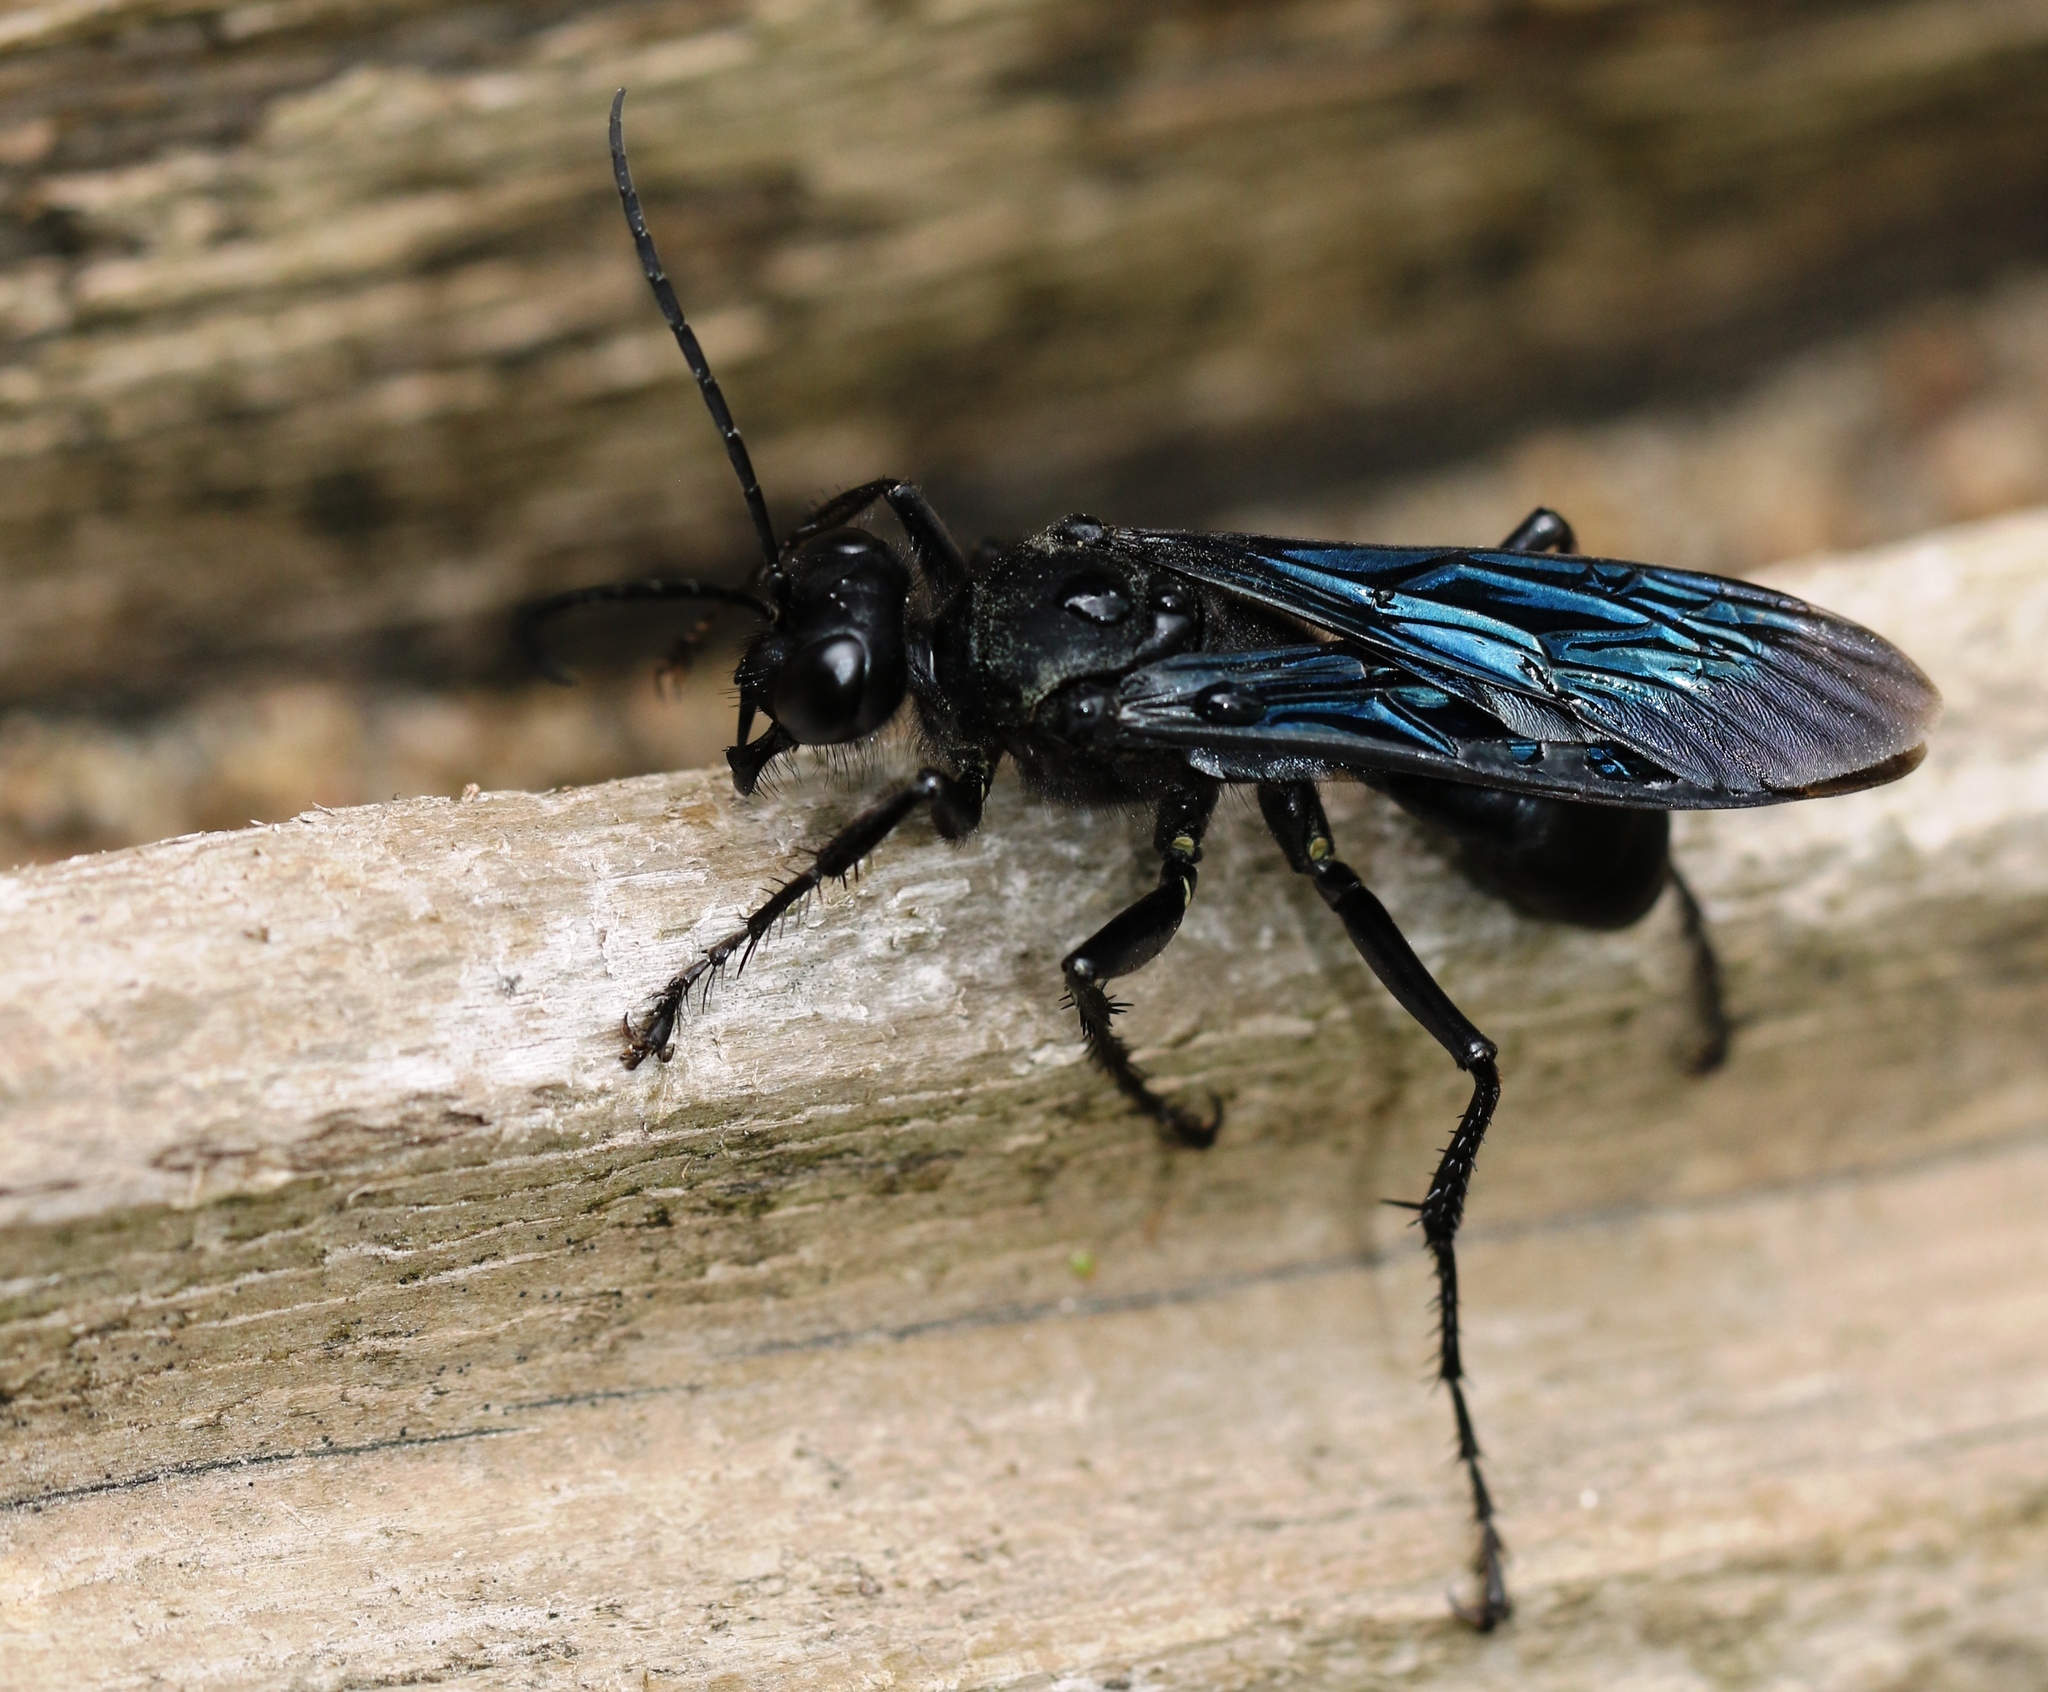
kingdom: Animalia
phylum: Arthropoda
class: Insecta
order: Hymenoptera
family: Sphecidae
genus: Sphex
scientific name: Sphex pensylvanicus
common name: Great black digger wasp
